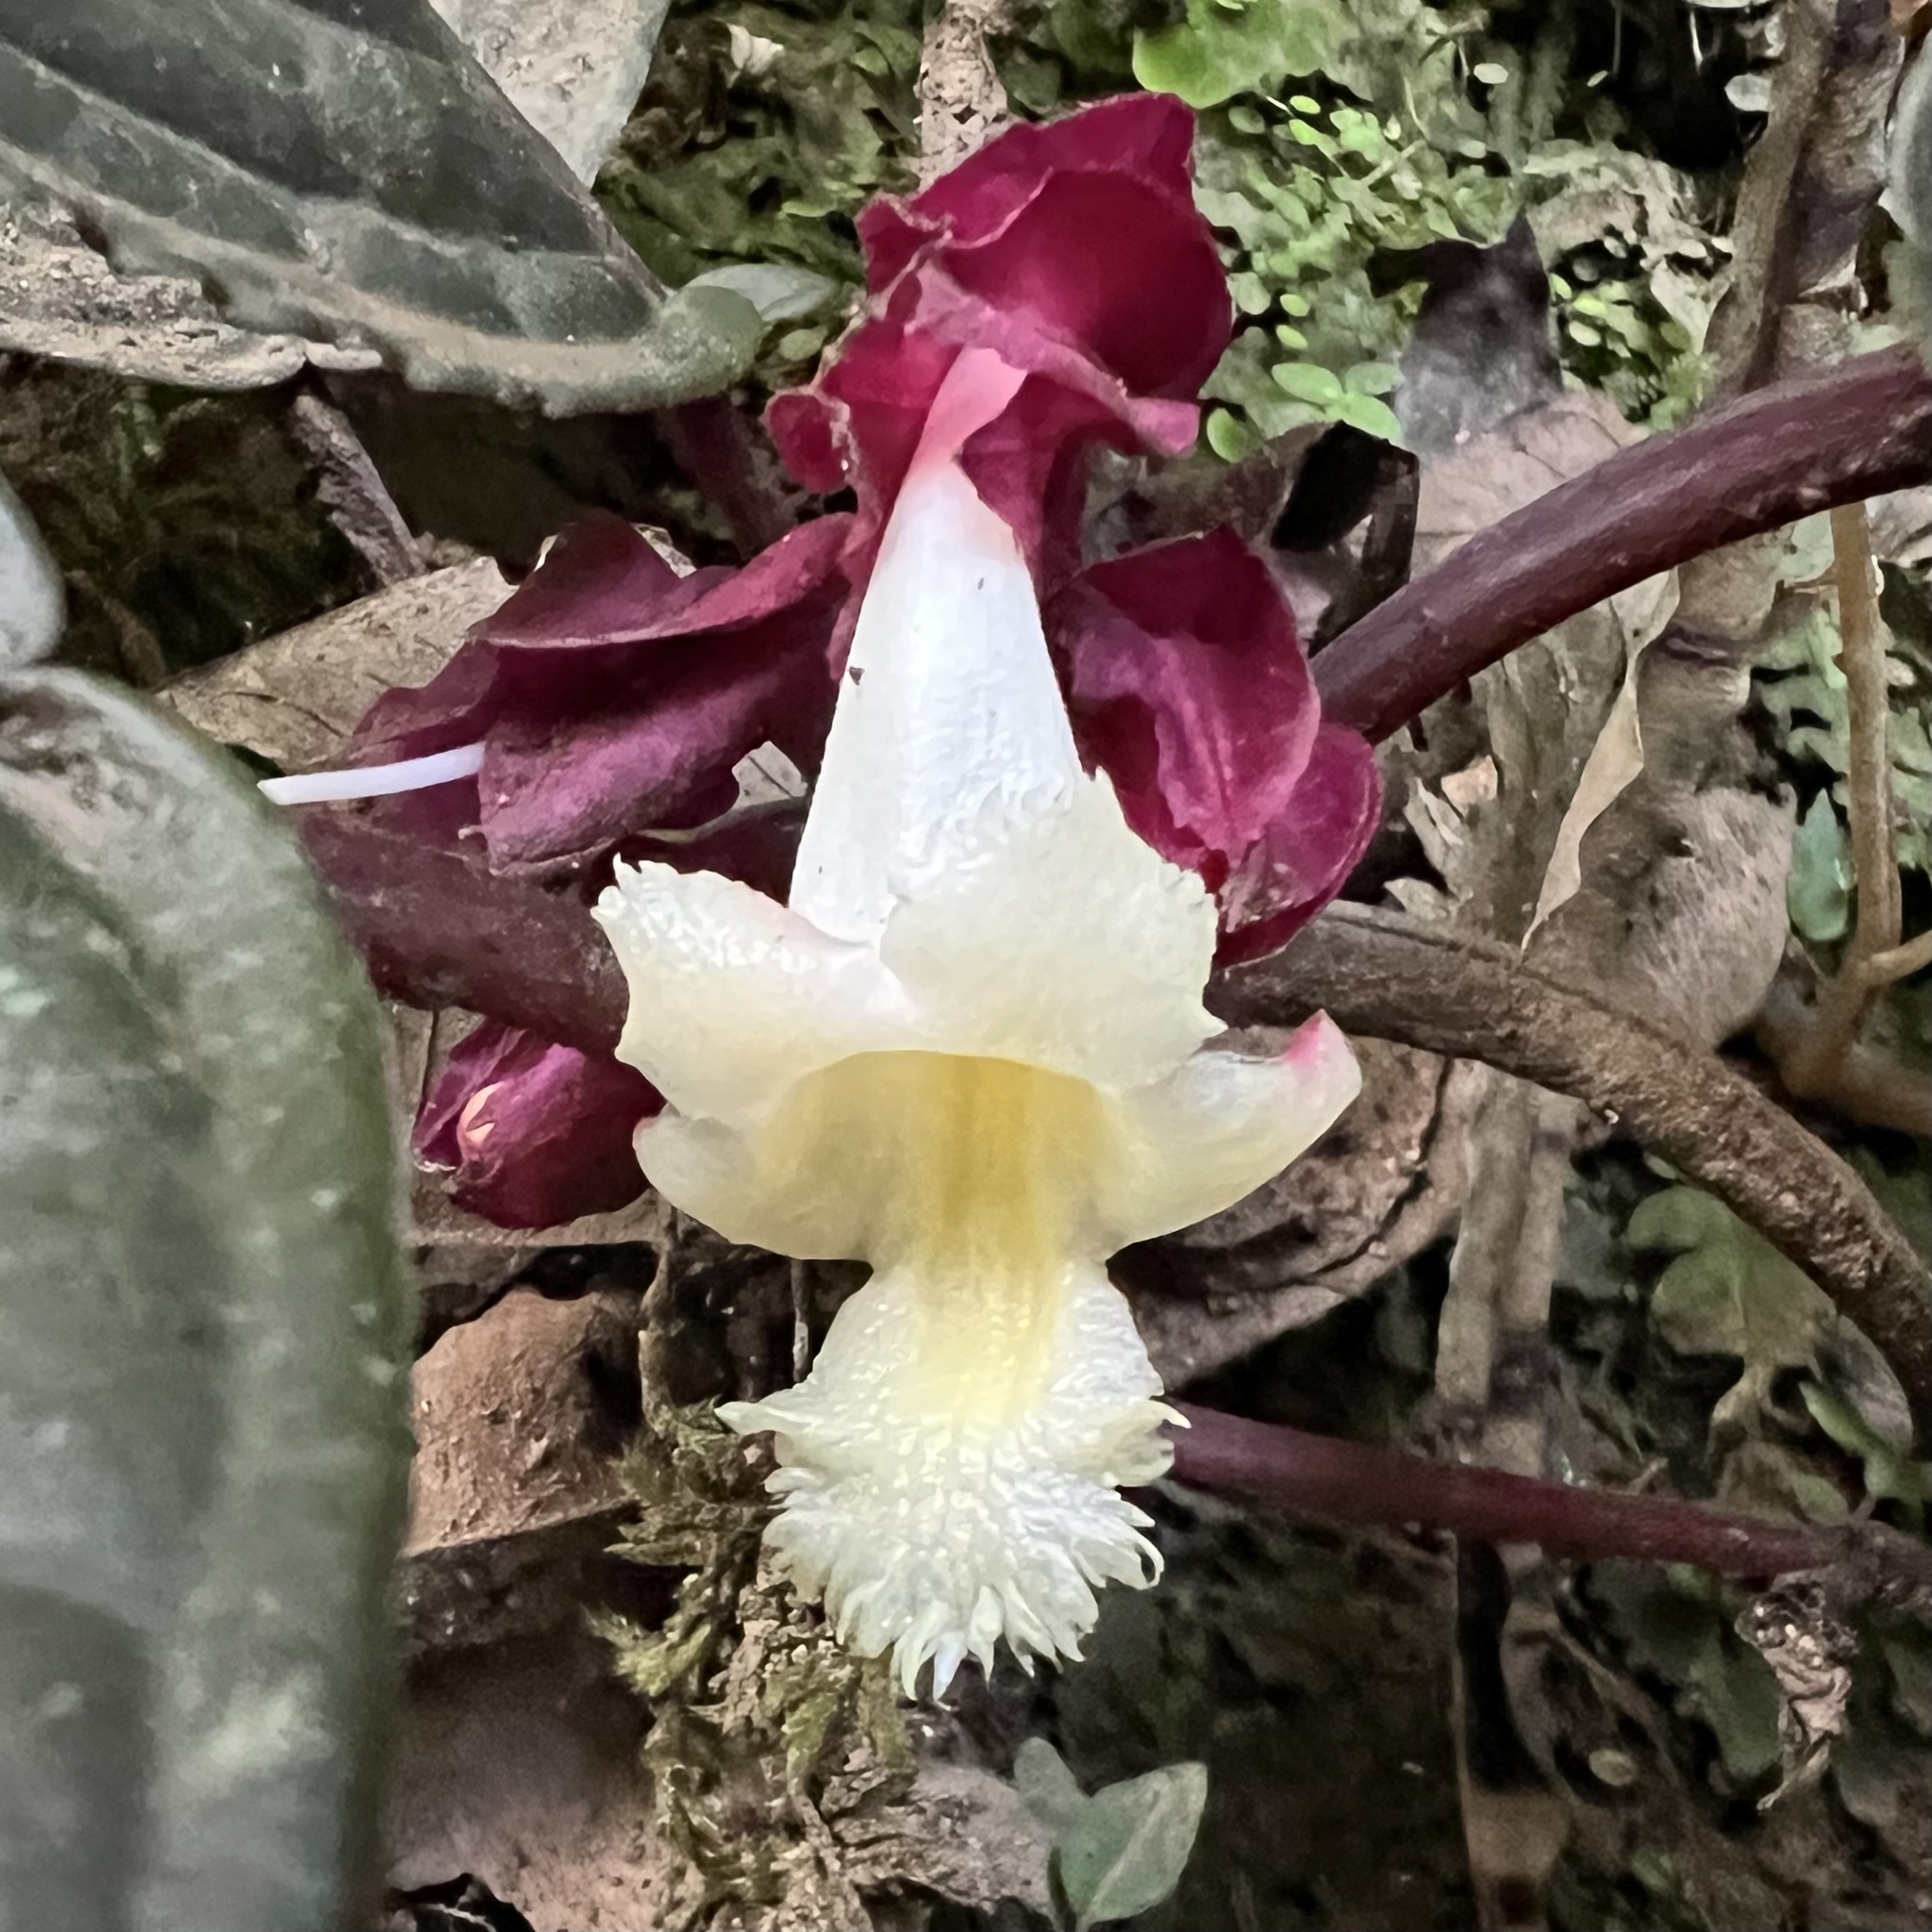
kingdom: Plantae
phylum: Tracheophyta
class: Magnoliopsida
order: Lamiales
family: Gesneriaceae
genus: Drymonia
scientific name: Drymonia turrialvae
